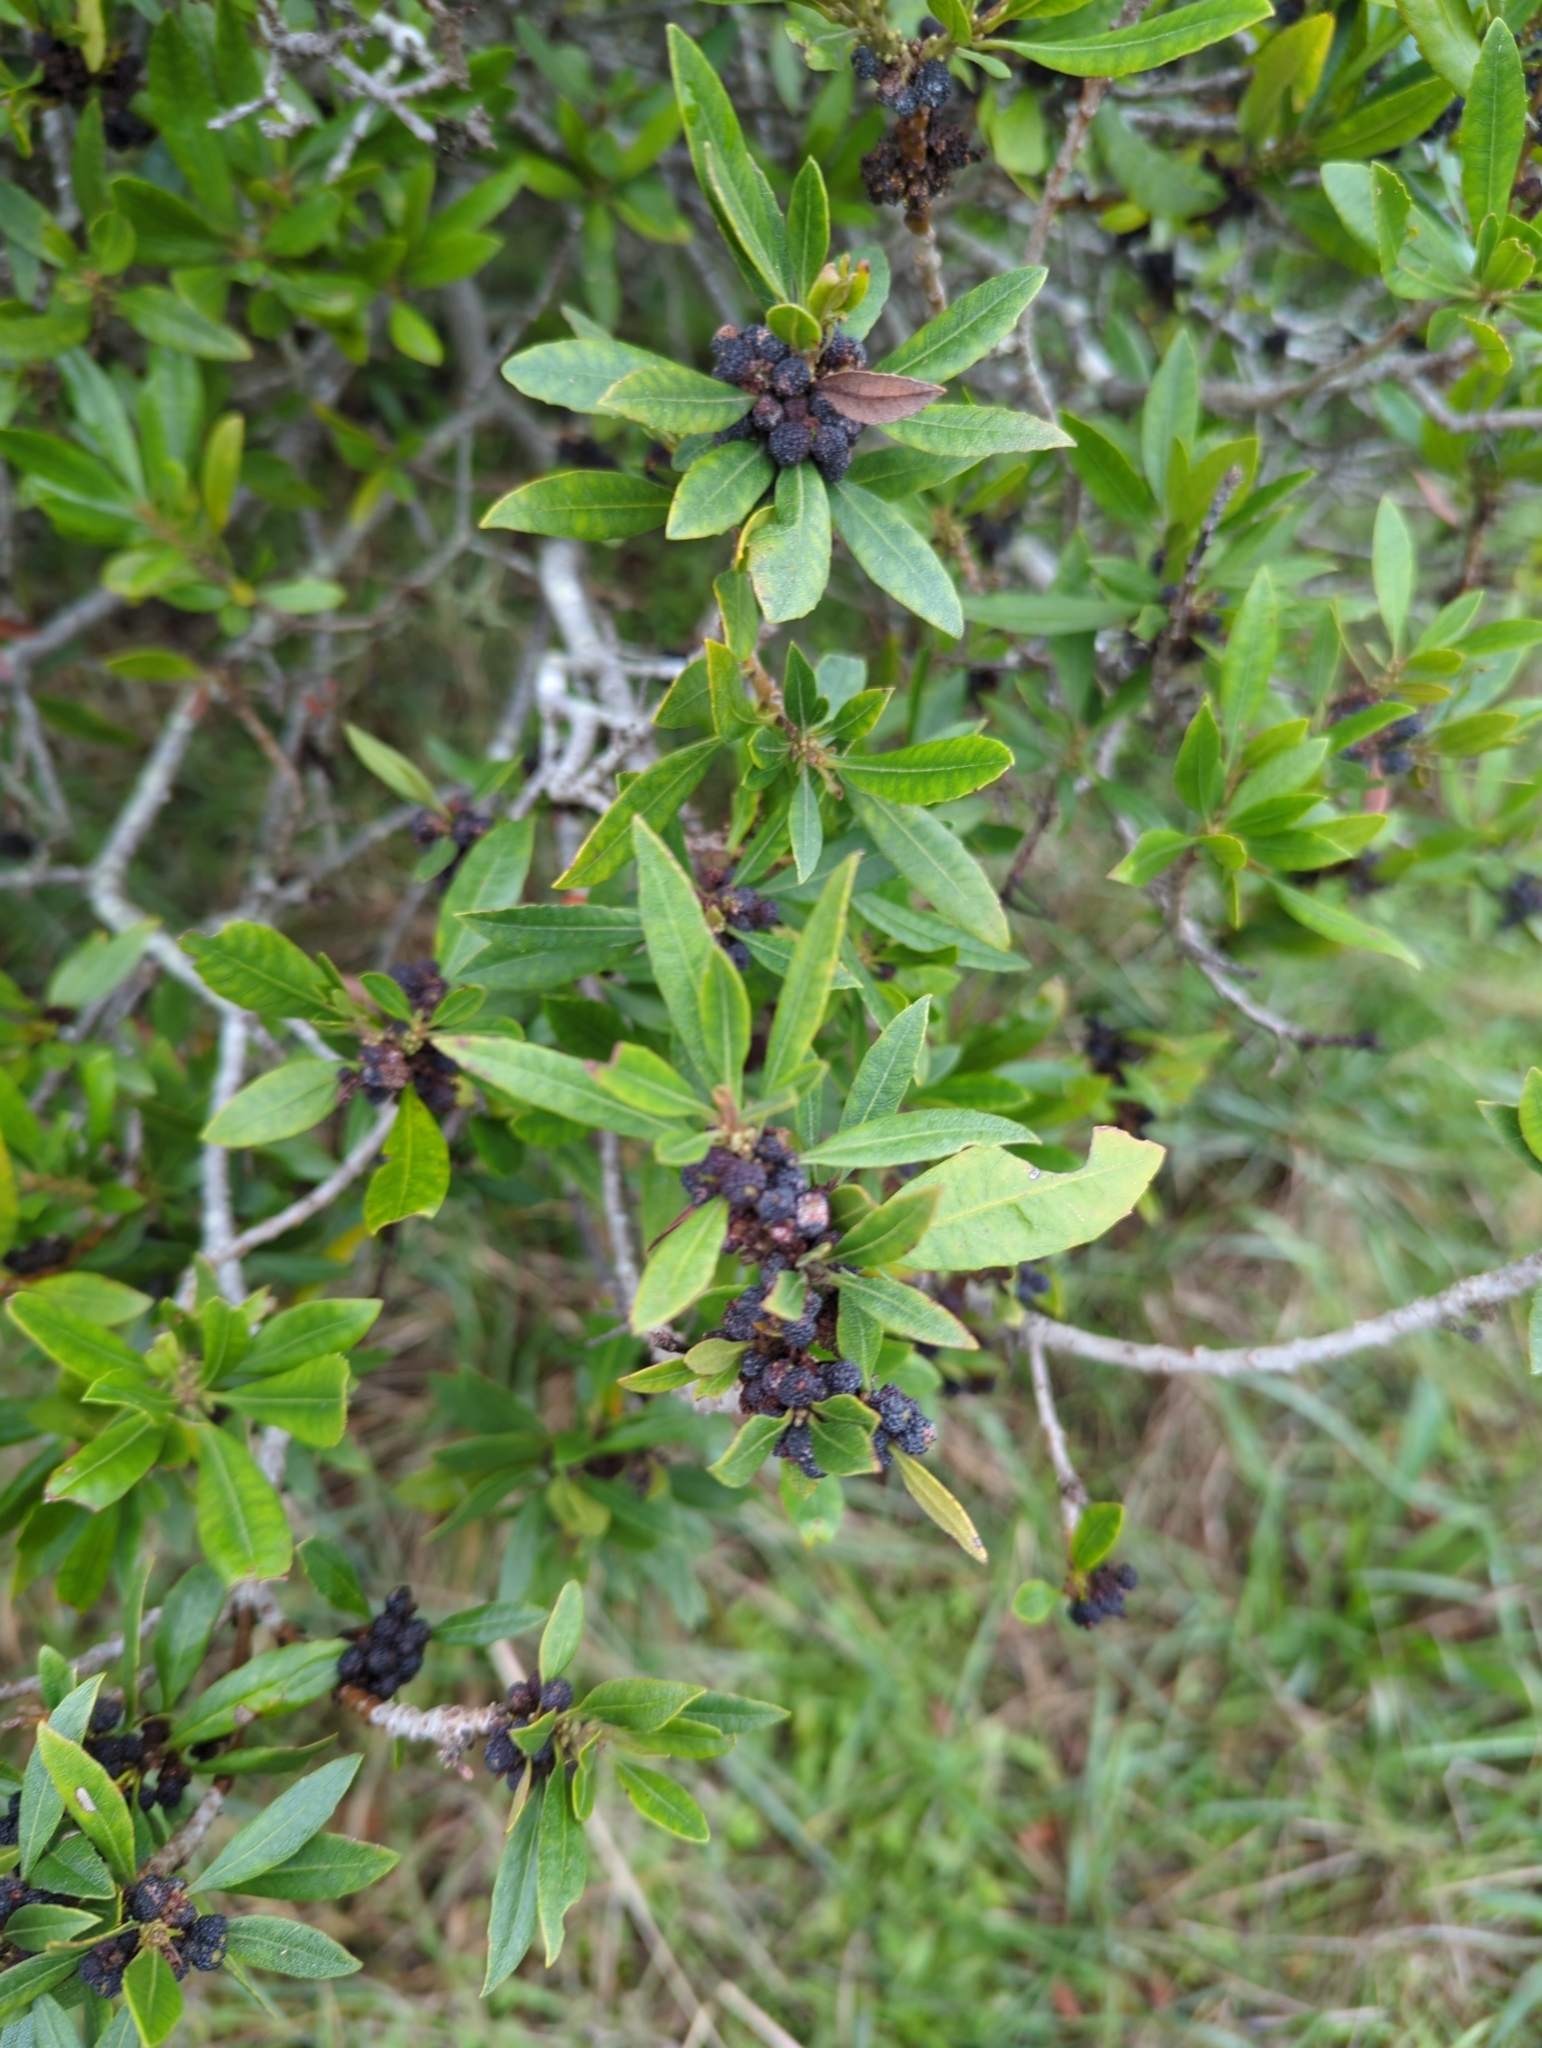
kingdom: Plantae
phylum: Tracheophyta
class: Magnoliopsida
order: Fagales
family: Myricaceae
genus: Morella
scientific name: Morella californica
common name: California wax-myrtle
